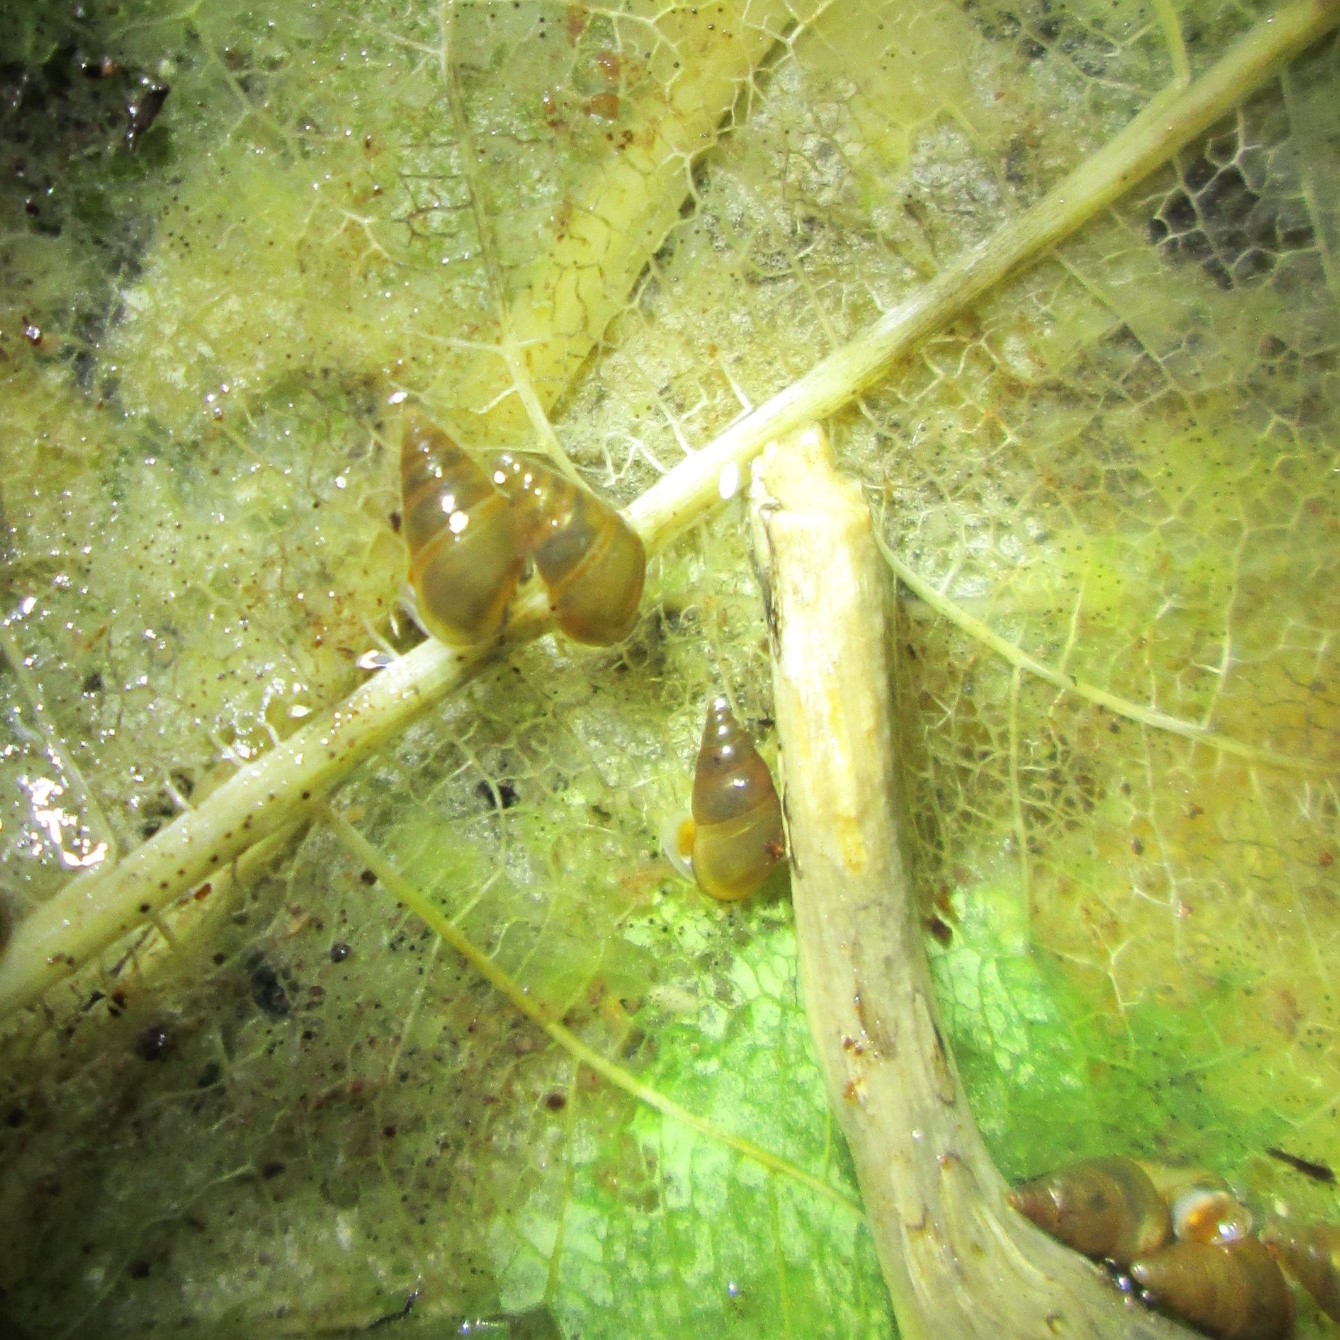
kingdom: Animalia
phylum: Mollusca
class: Gastropoda
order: Littorinimorpha
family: Tateidae
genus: Potamopyrgus
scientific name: Potamopyrgus antipodarum
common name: Jenkins' spire snail
